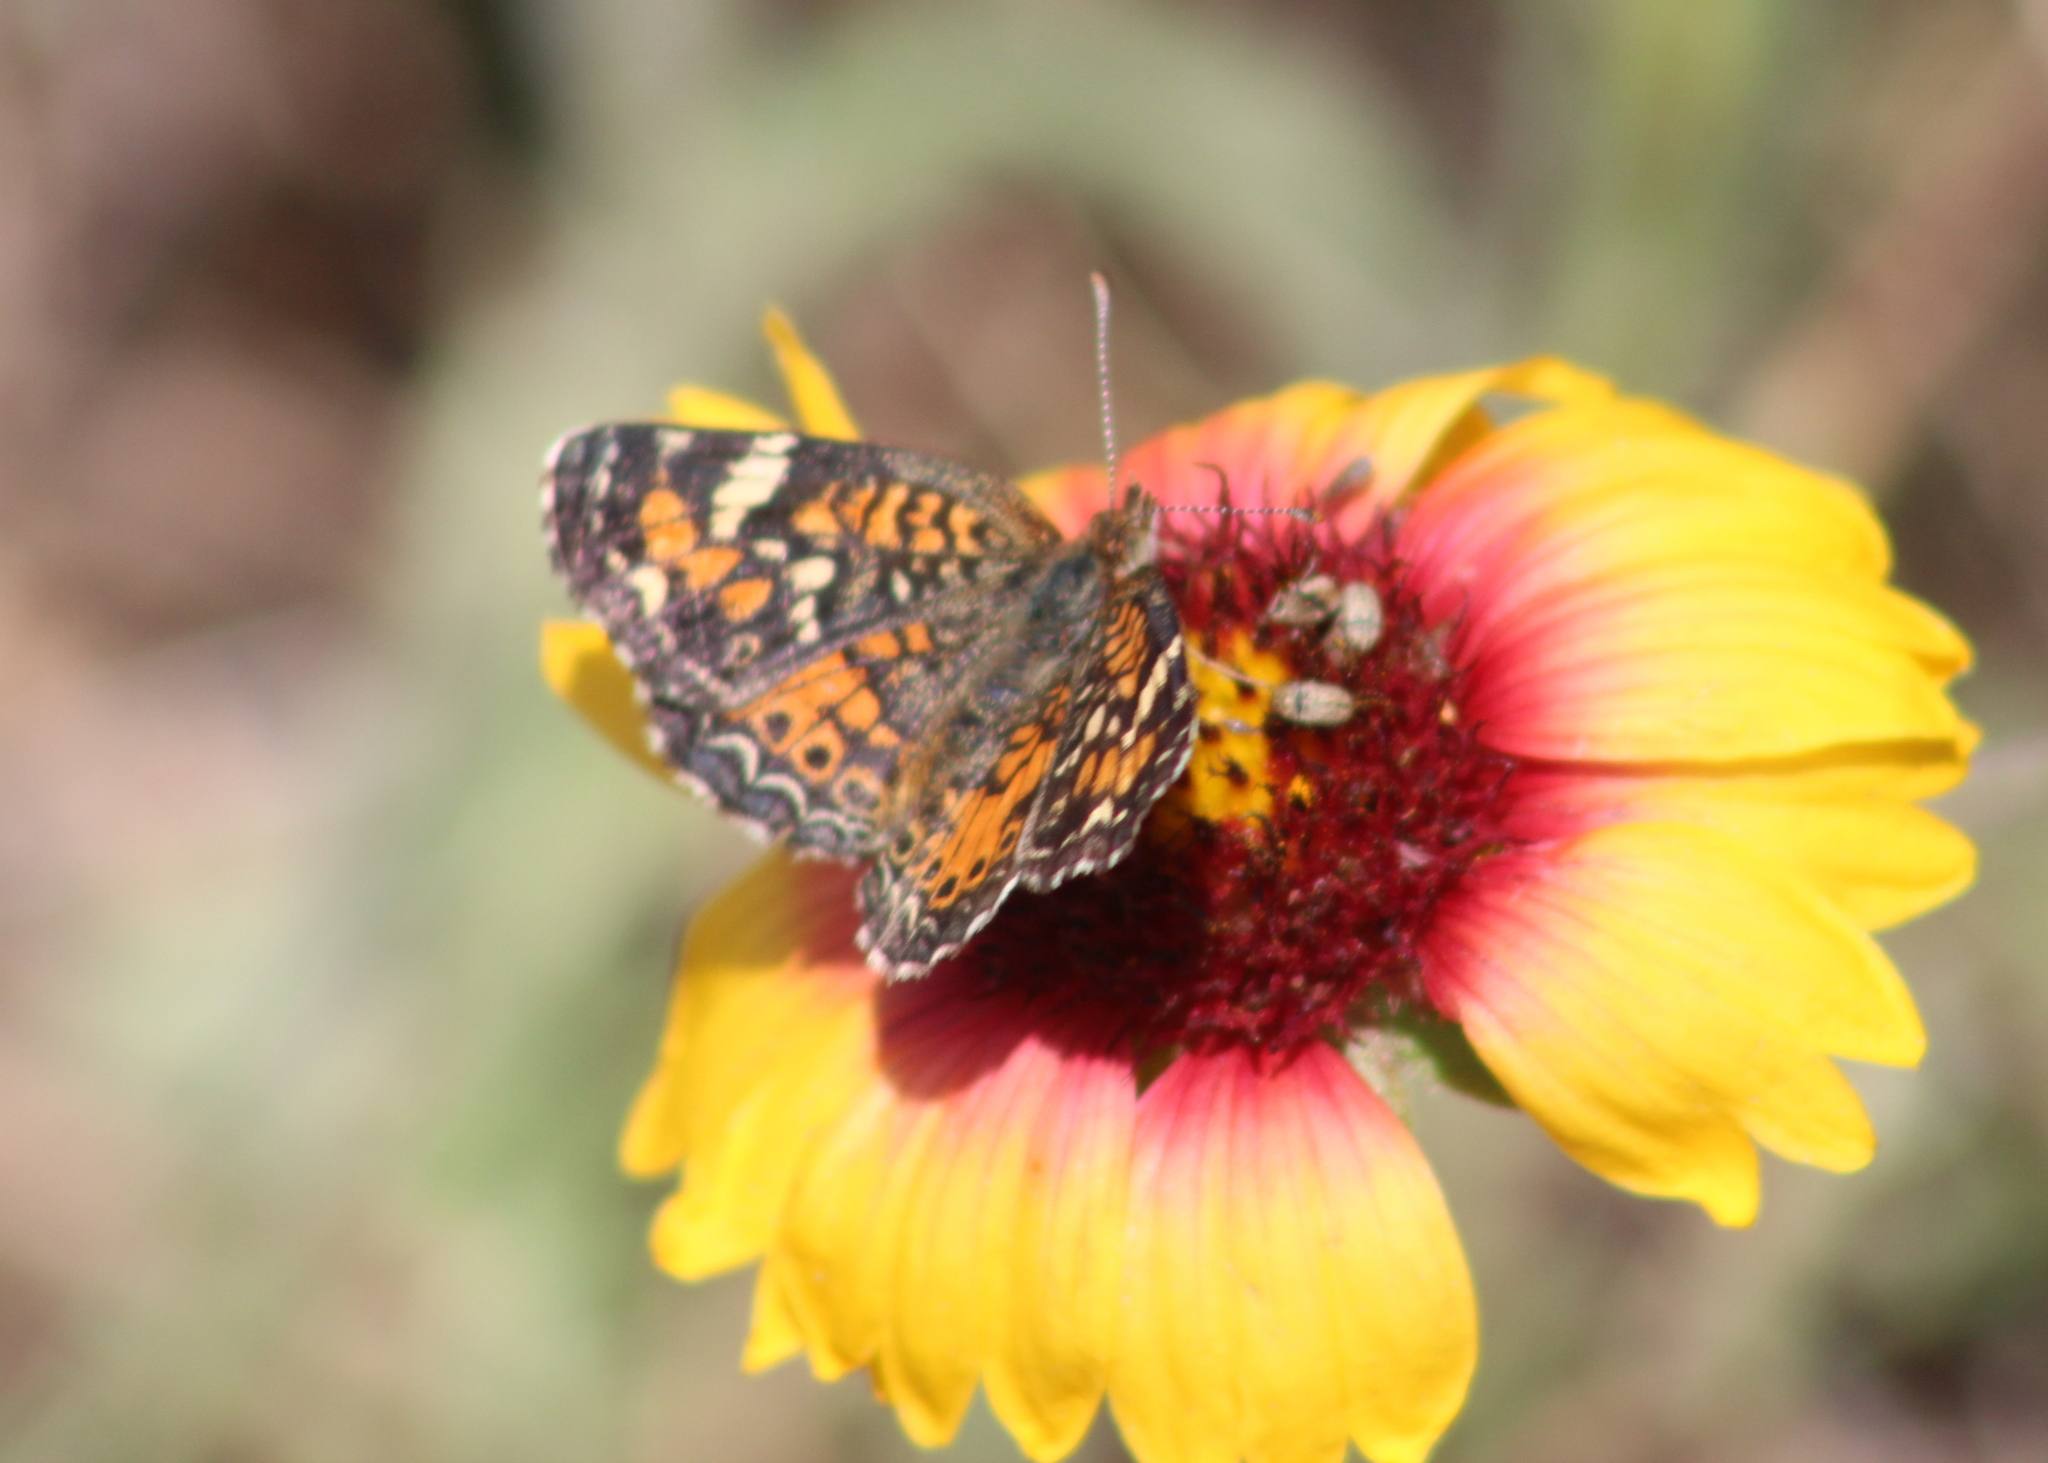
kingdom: Animalia
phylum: Arthropoda
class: Insecta
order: Lepidoptera
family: Nymphalidae
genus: Phyciodes
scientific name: Phyciodes phaon
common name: Phaon crescent
